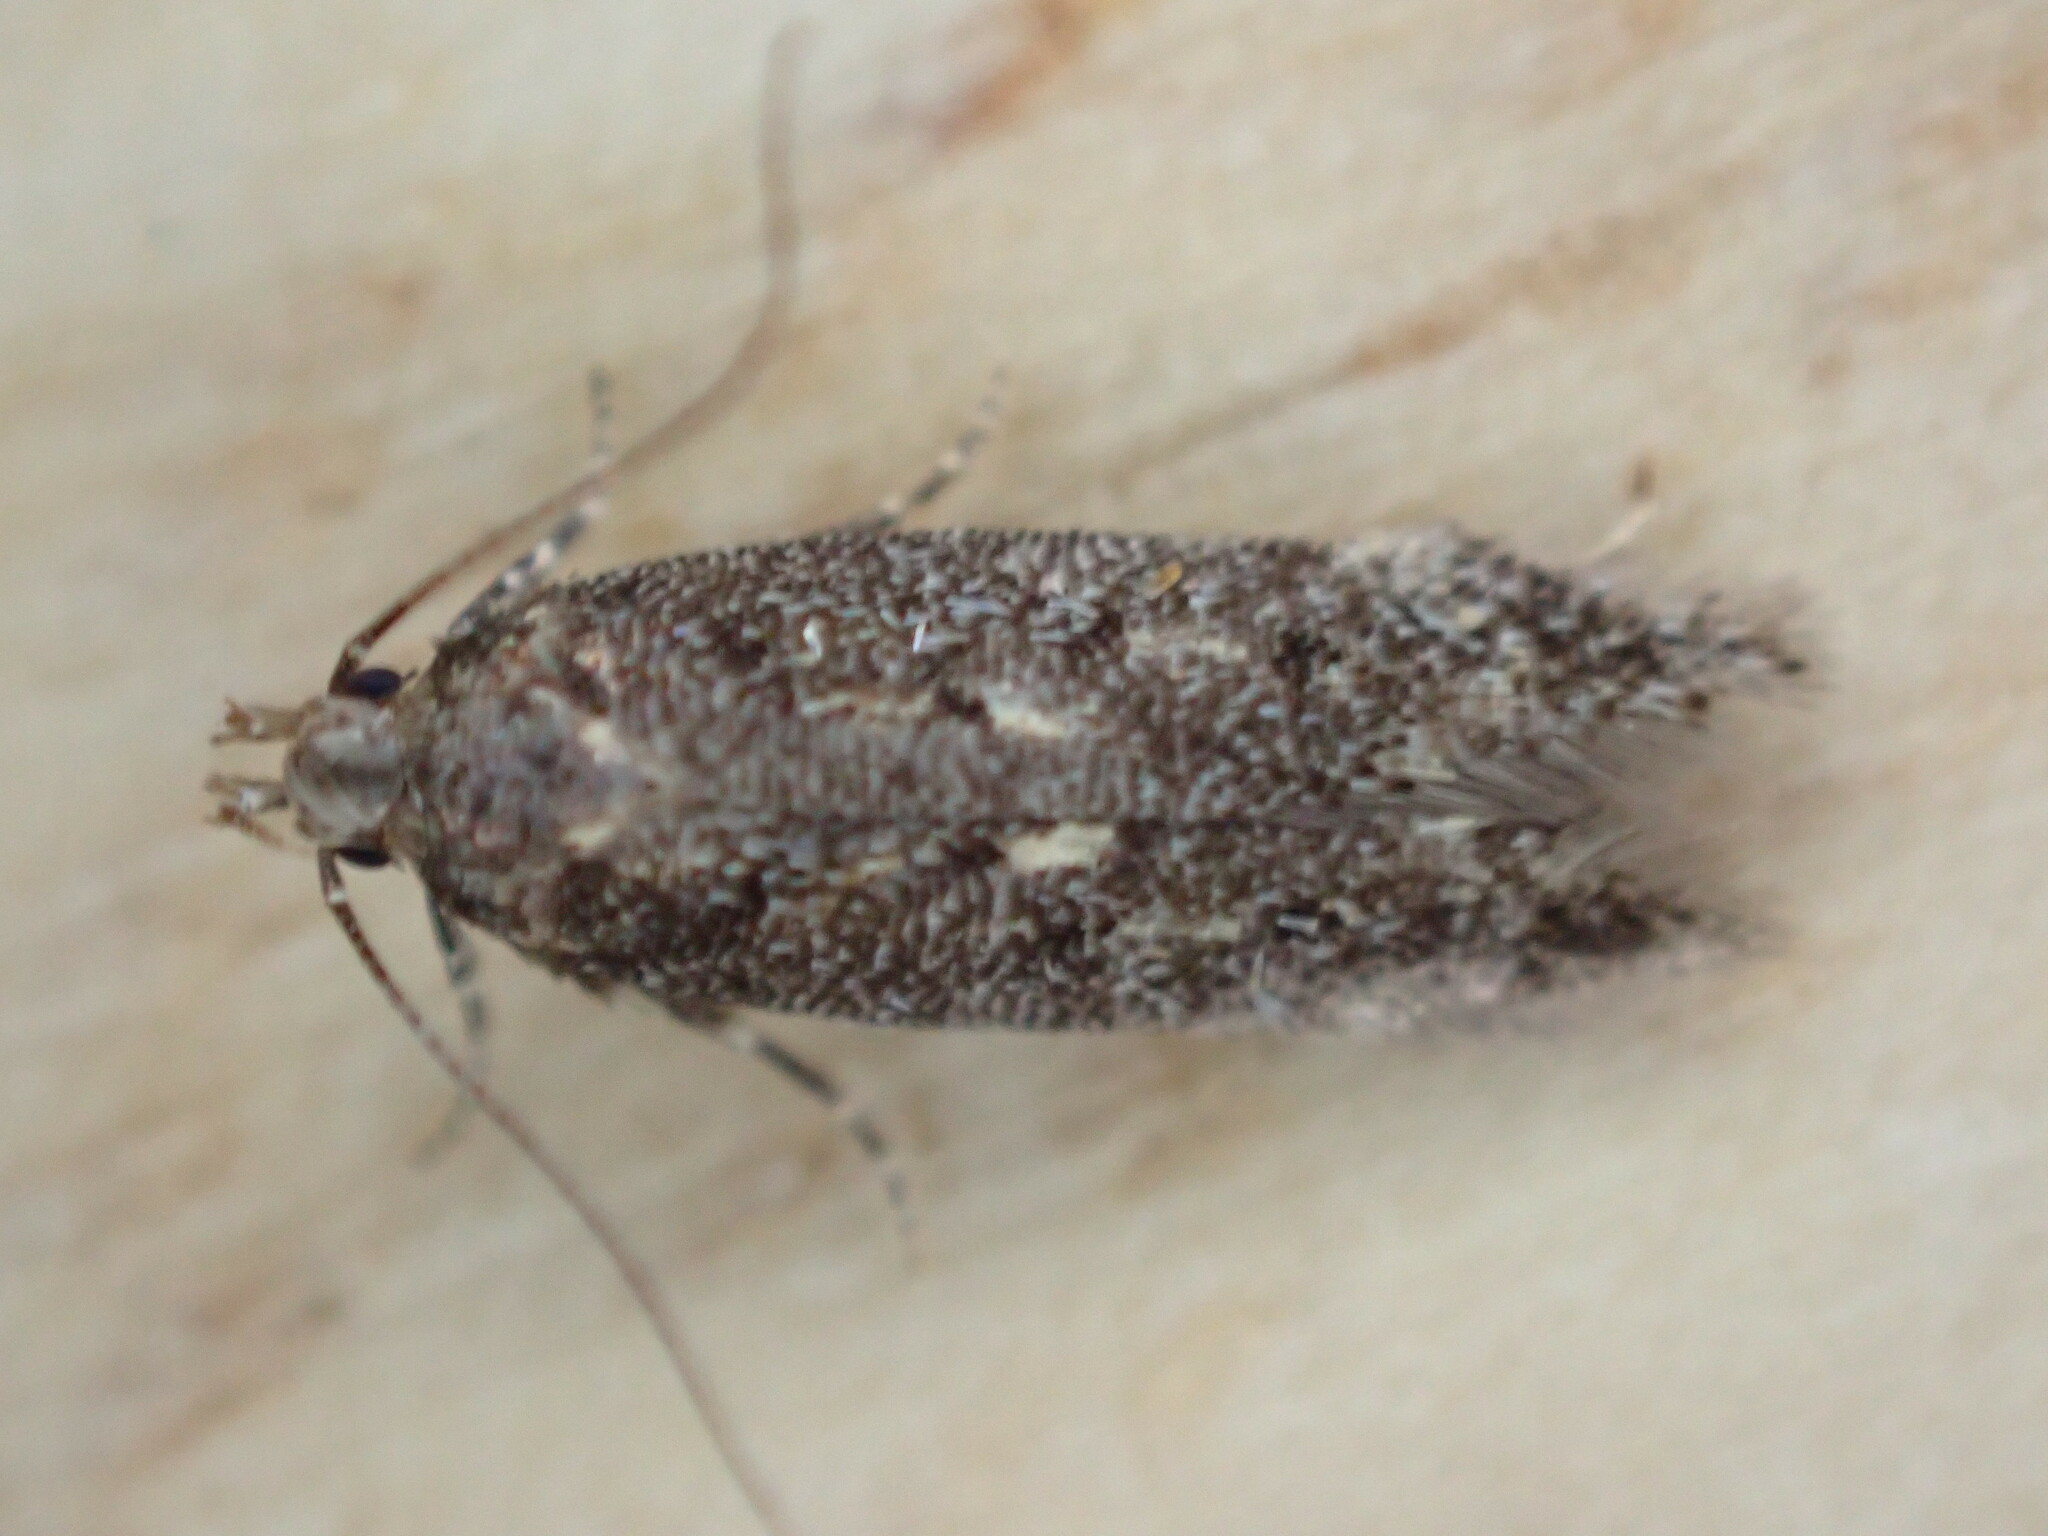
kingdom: Animalia
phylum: Arthropoda
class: Insecta
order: Lepidoptera
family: Gelechiidae
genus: Bryotropha
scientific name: Bryotropha affinis
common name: Dark groundling
